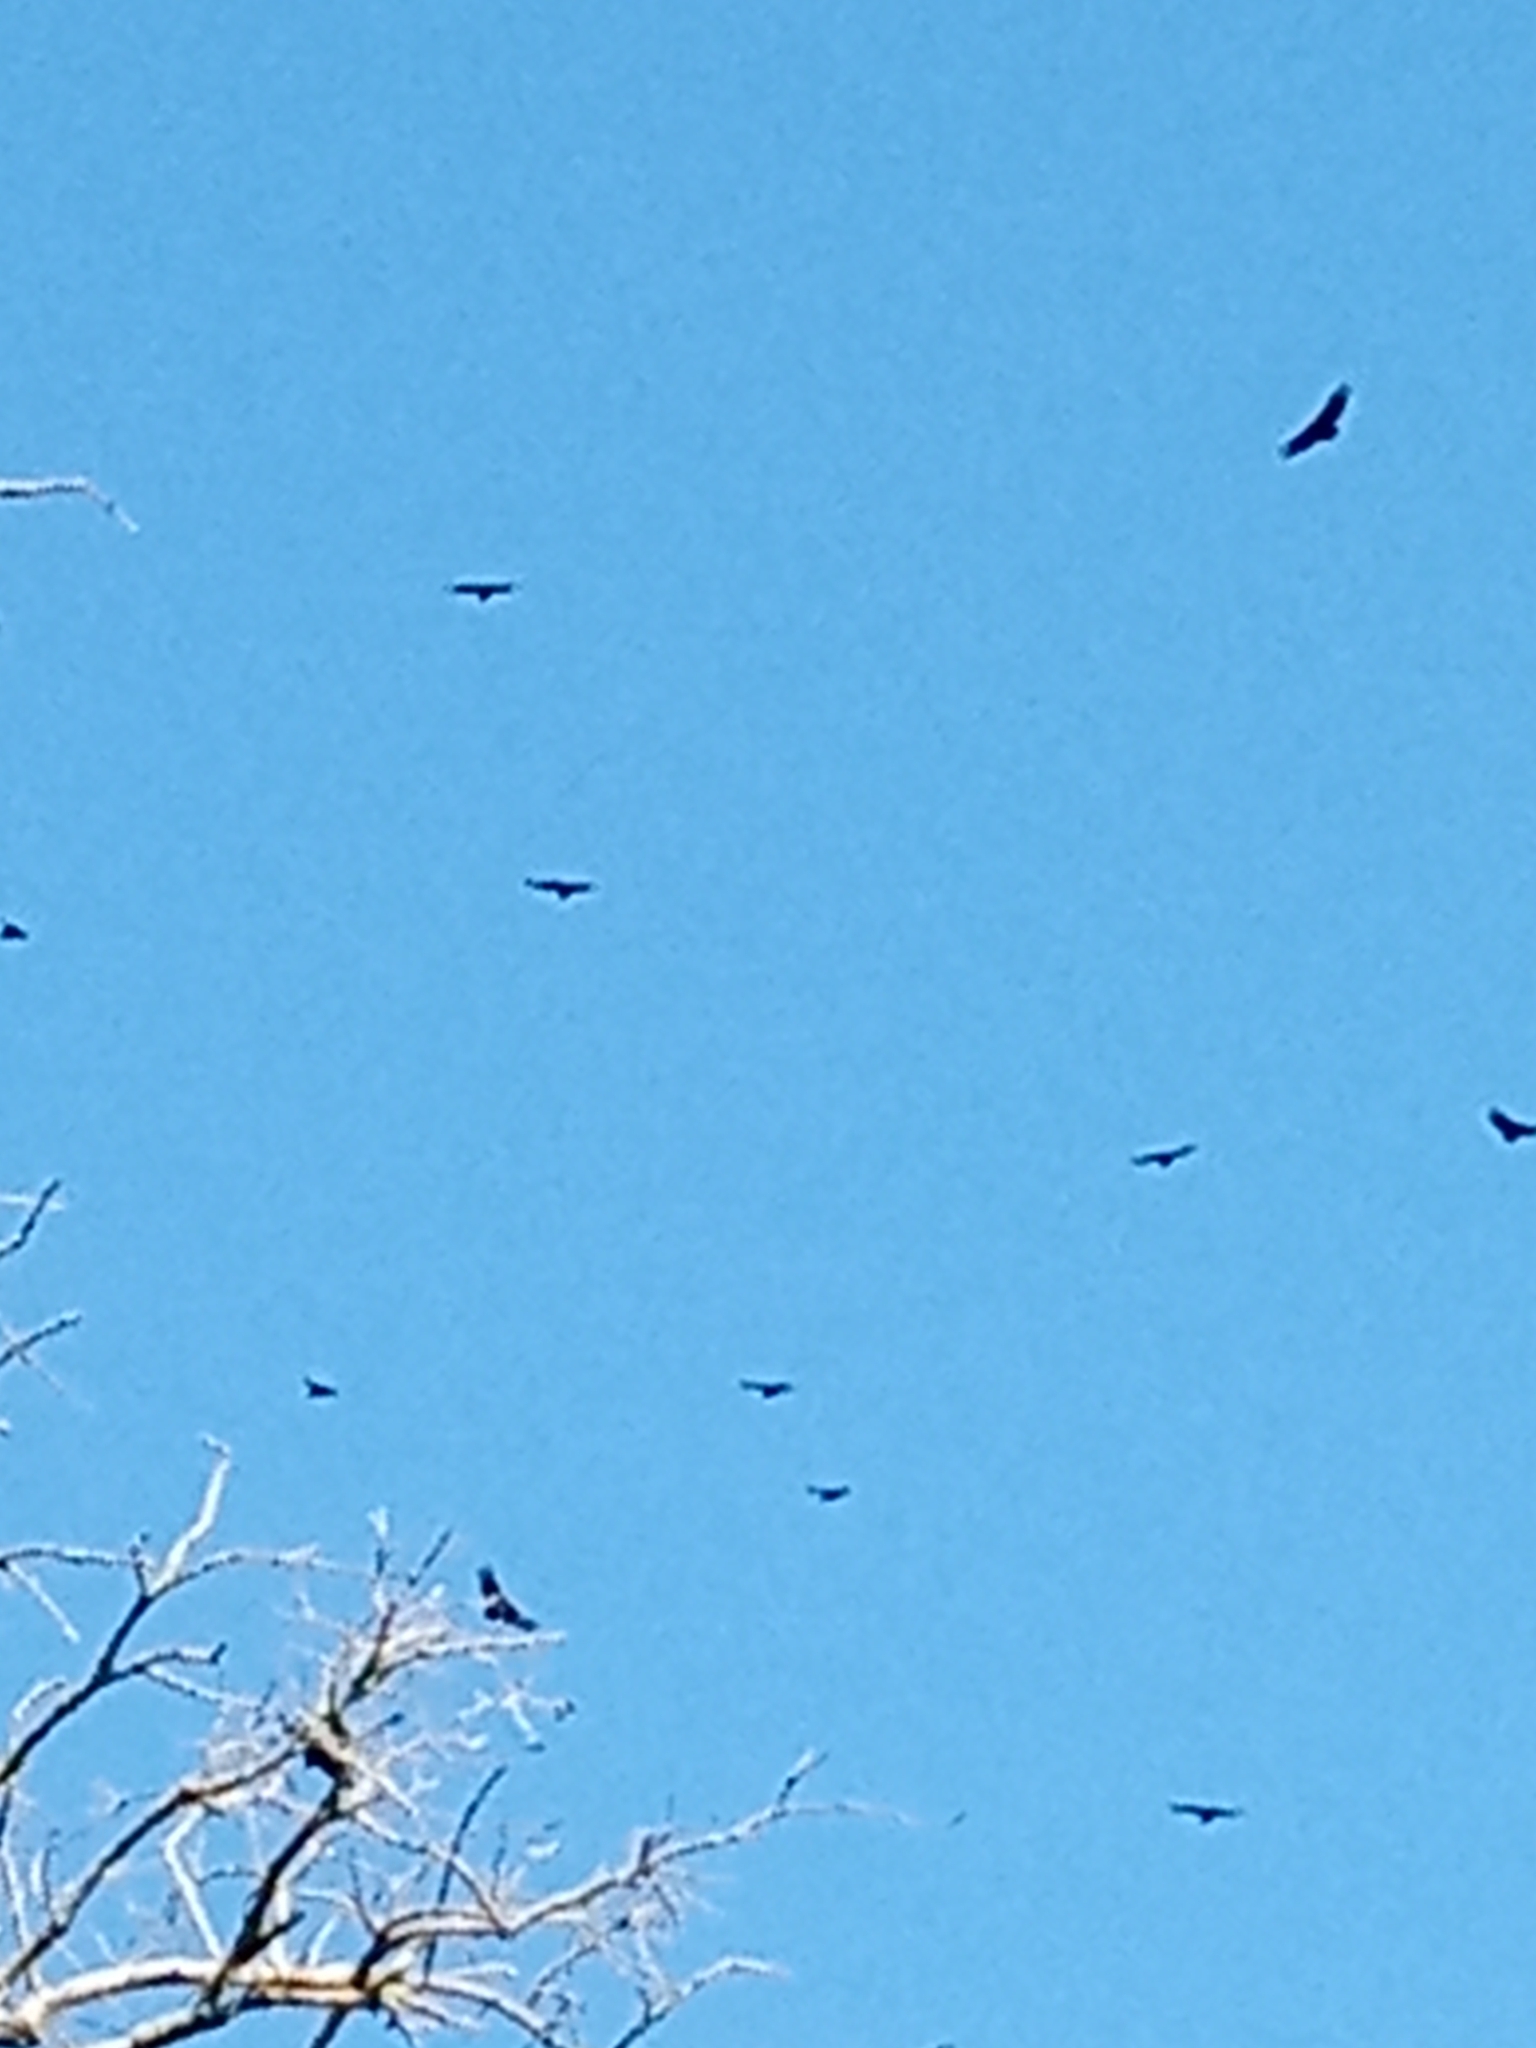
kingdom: Animalia
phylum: Chordata
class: Aves
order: Accipitriformes
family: Cathartidae
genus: Coragyps
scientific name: Coragyps atratus
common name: Black vulture
